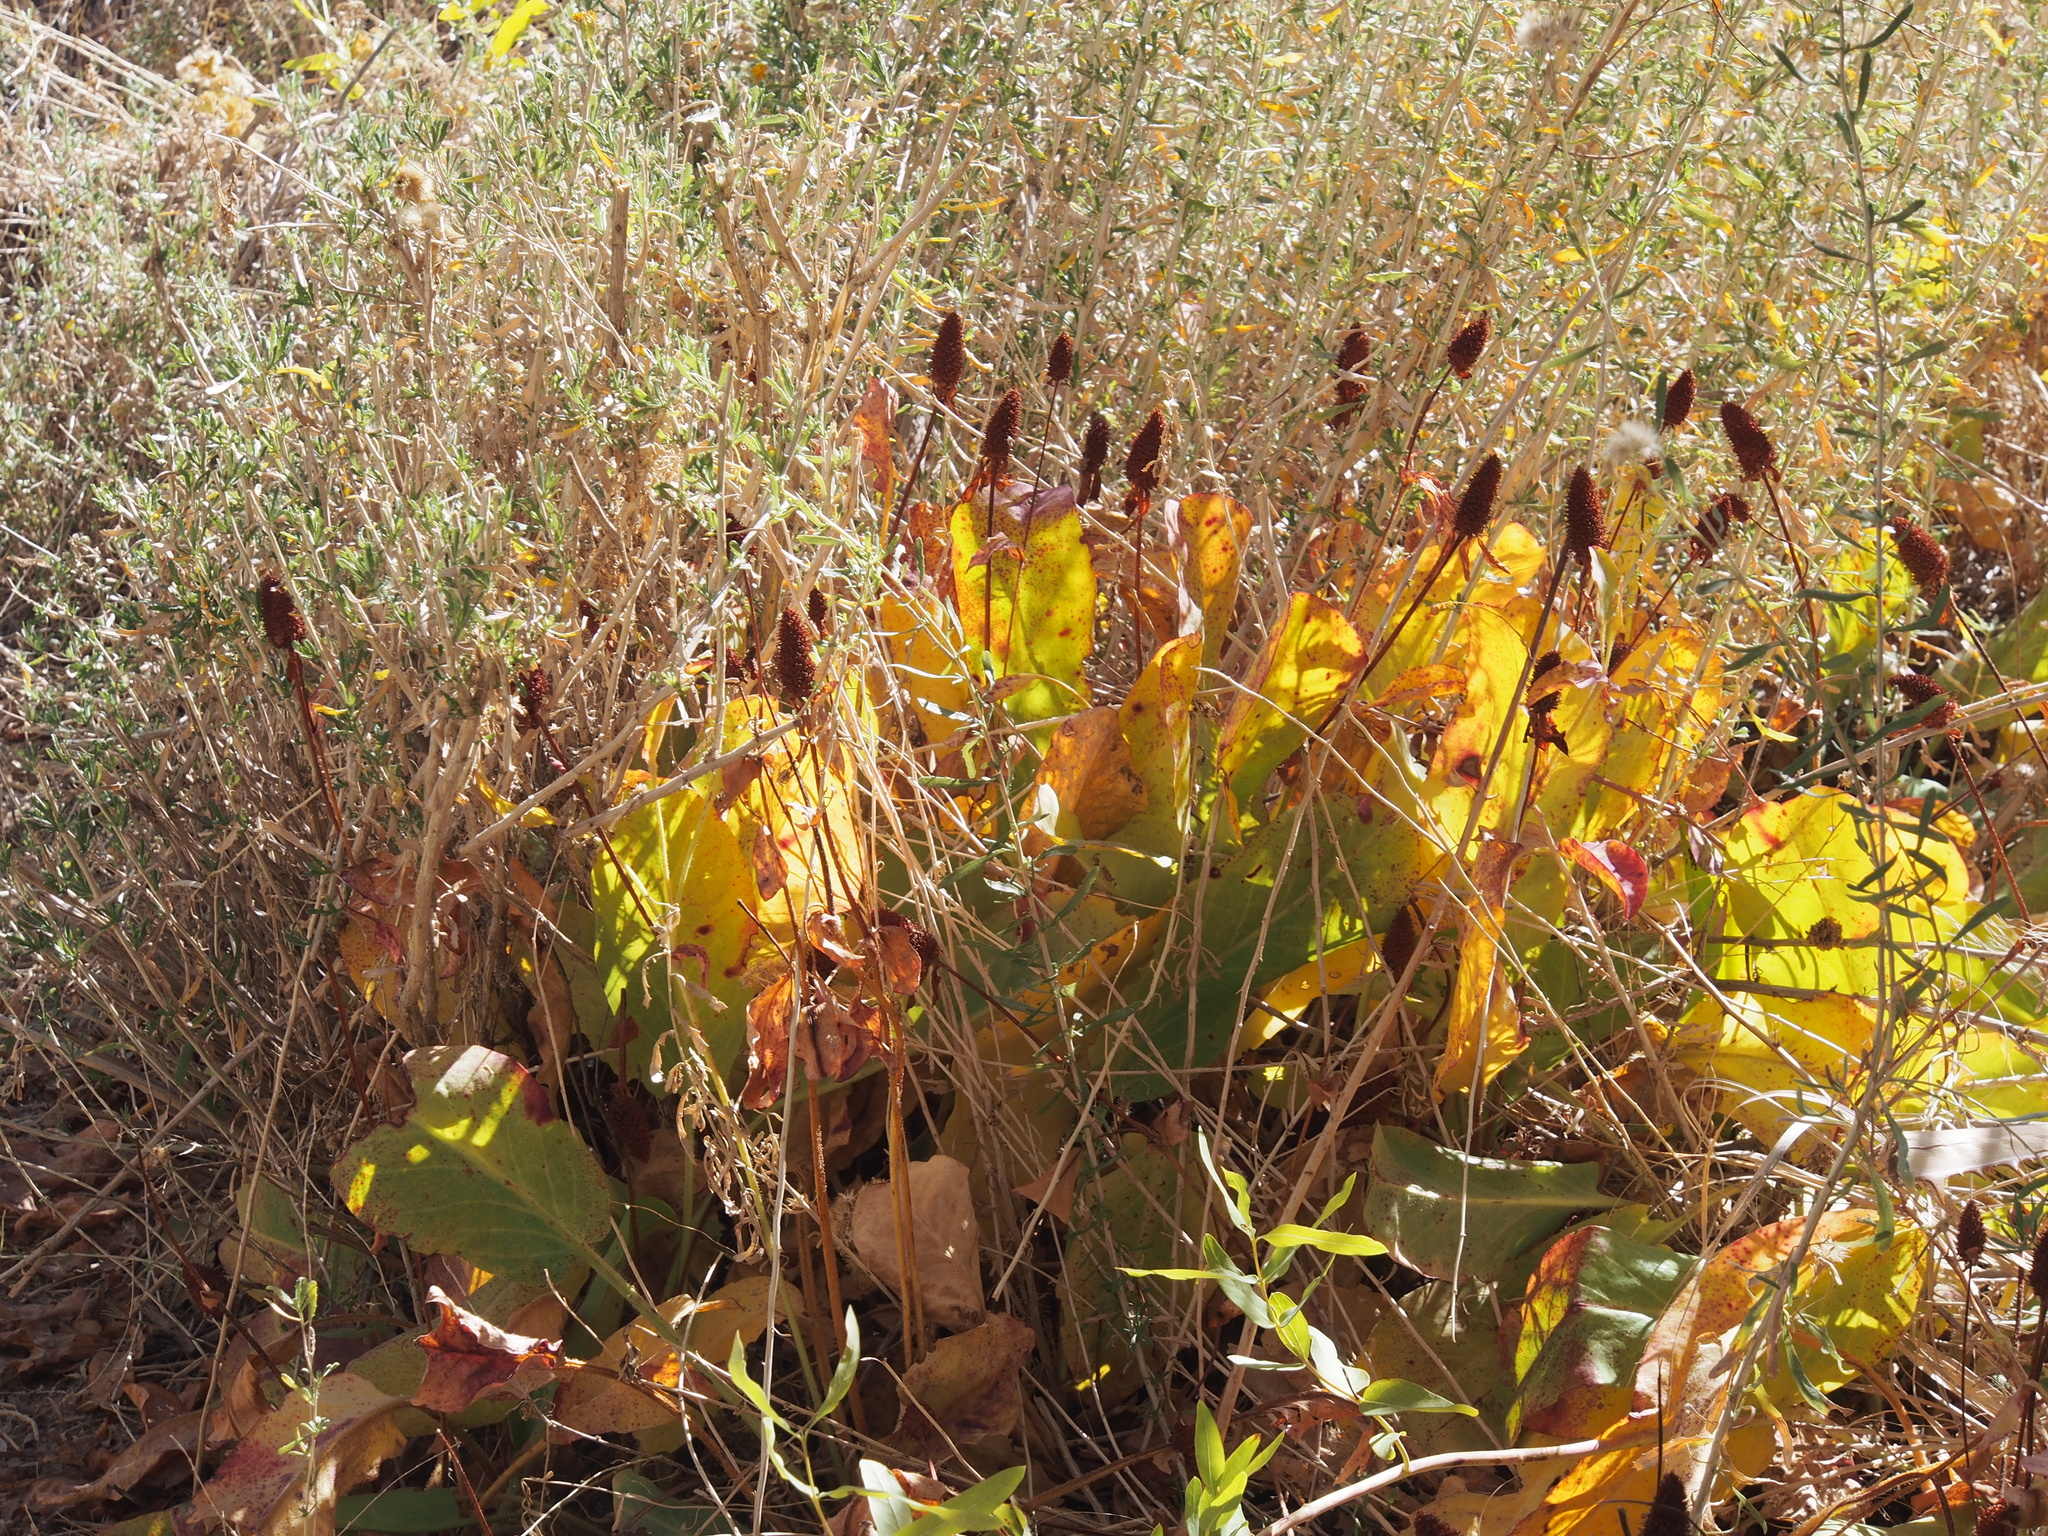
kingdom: Plantae
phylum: Tracheophyta
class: Magnoliopsida
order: Piperales
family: Saururaceae
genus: Anemopsis
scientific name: Anemopsis californica
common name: Apache-beads
